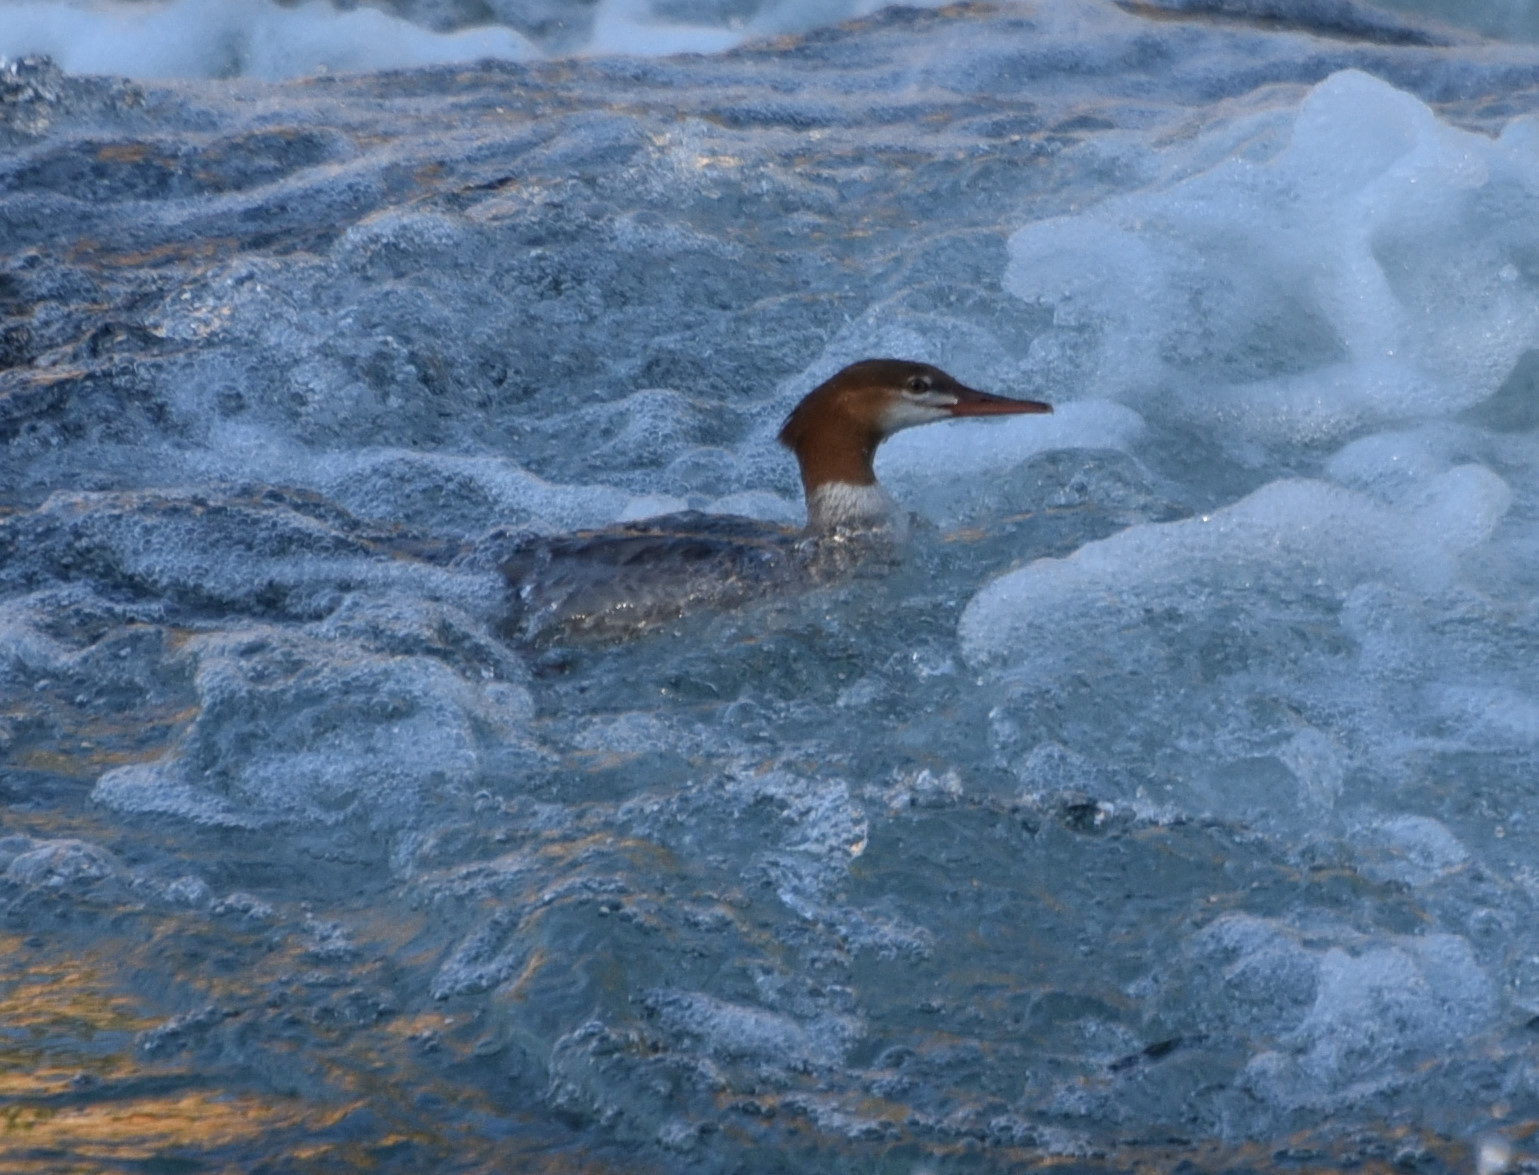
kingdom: Animalia
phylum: Chordata
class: Aves
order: Anseriformes
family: Anatidae
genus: Mergus
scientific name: Mergus merganser
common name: Common merganser
